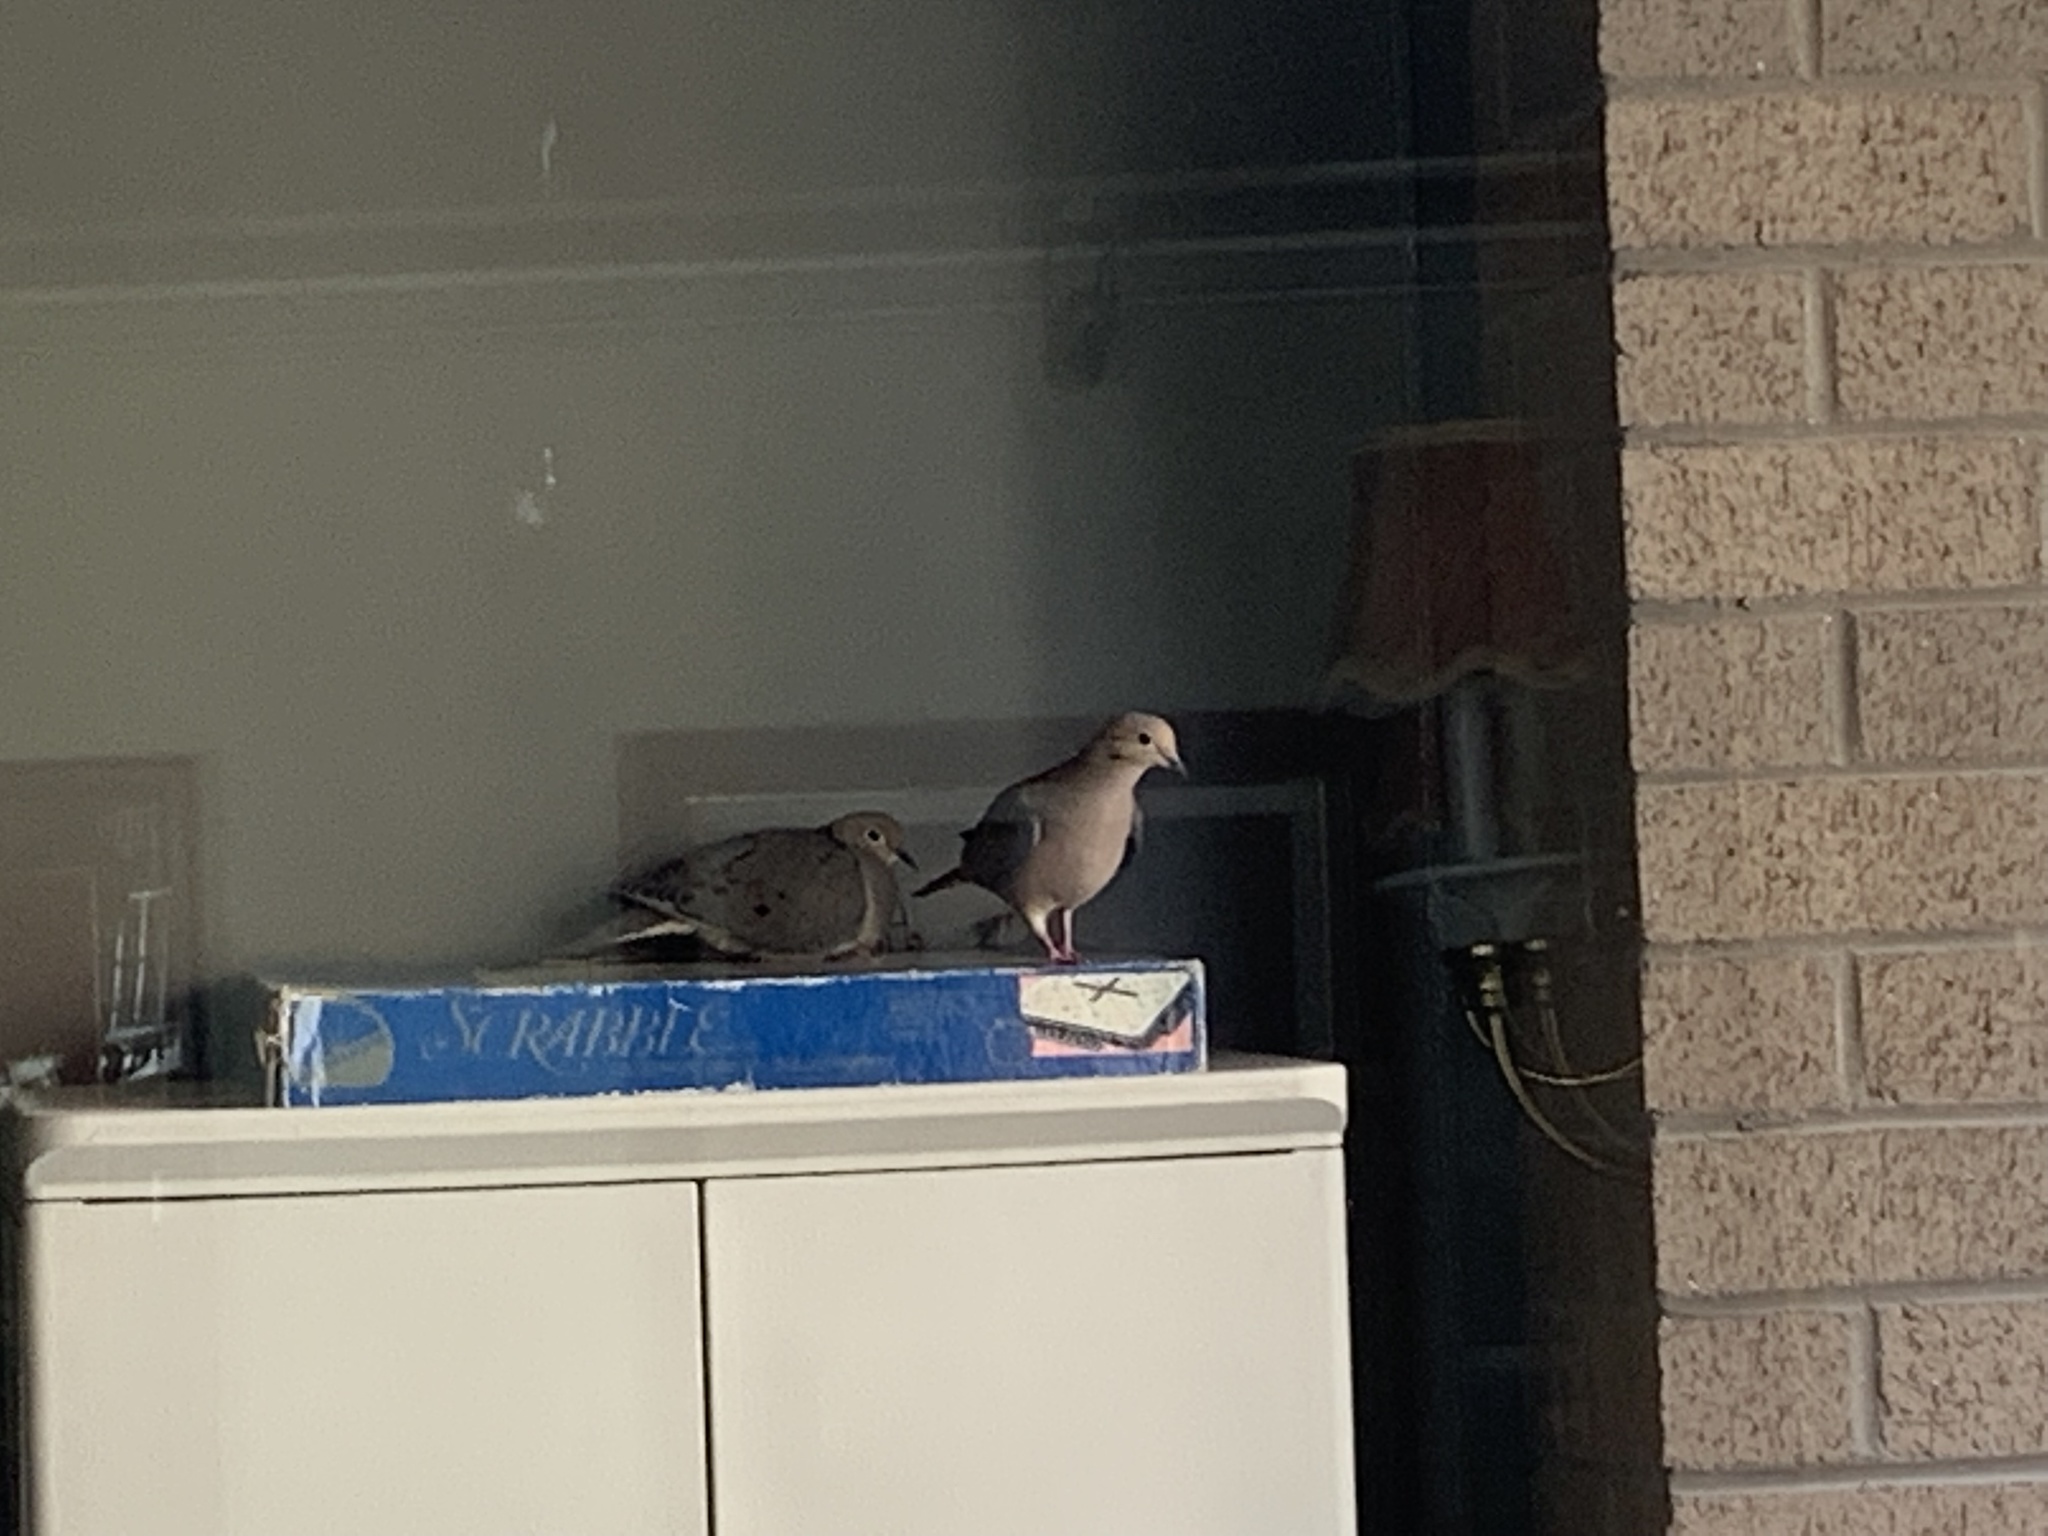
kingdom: Animalia
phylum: Chordata
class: Aves
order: Columbiformes
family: Columbidae
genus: Zenaida
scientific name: Zenaida macroura
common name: Mourning dove
